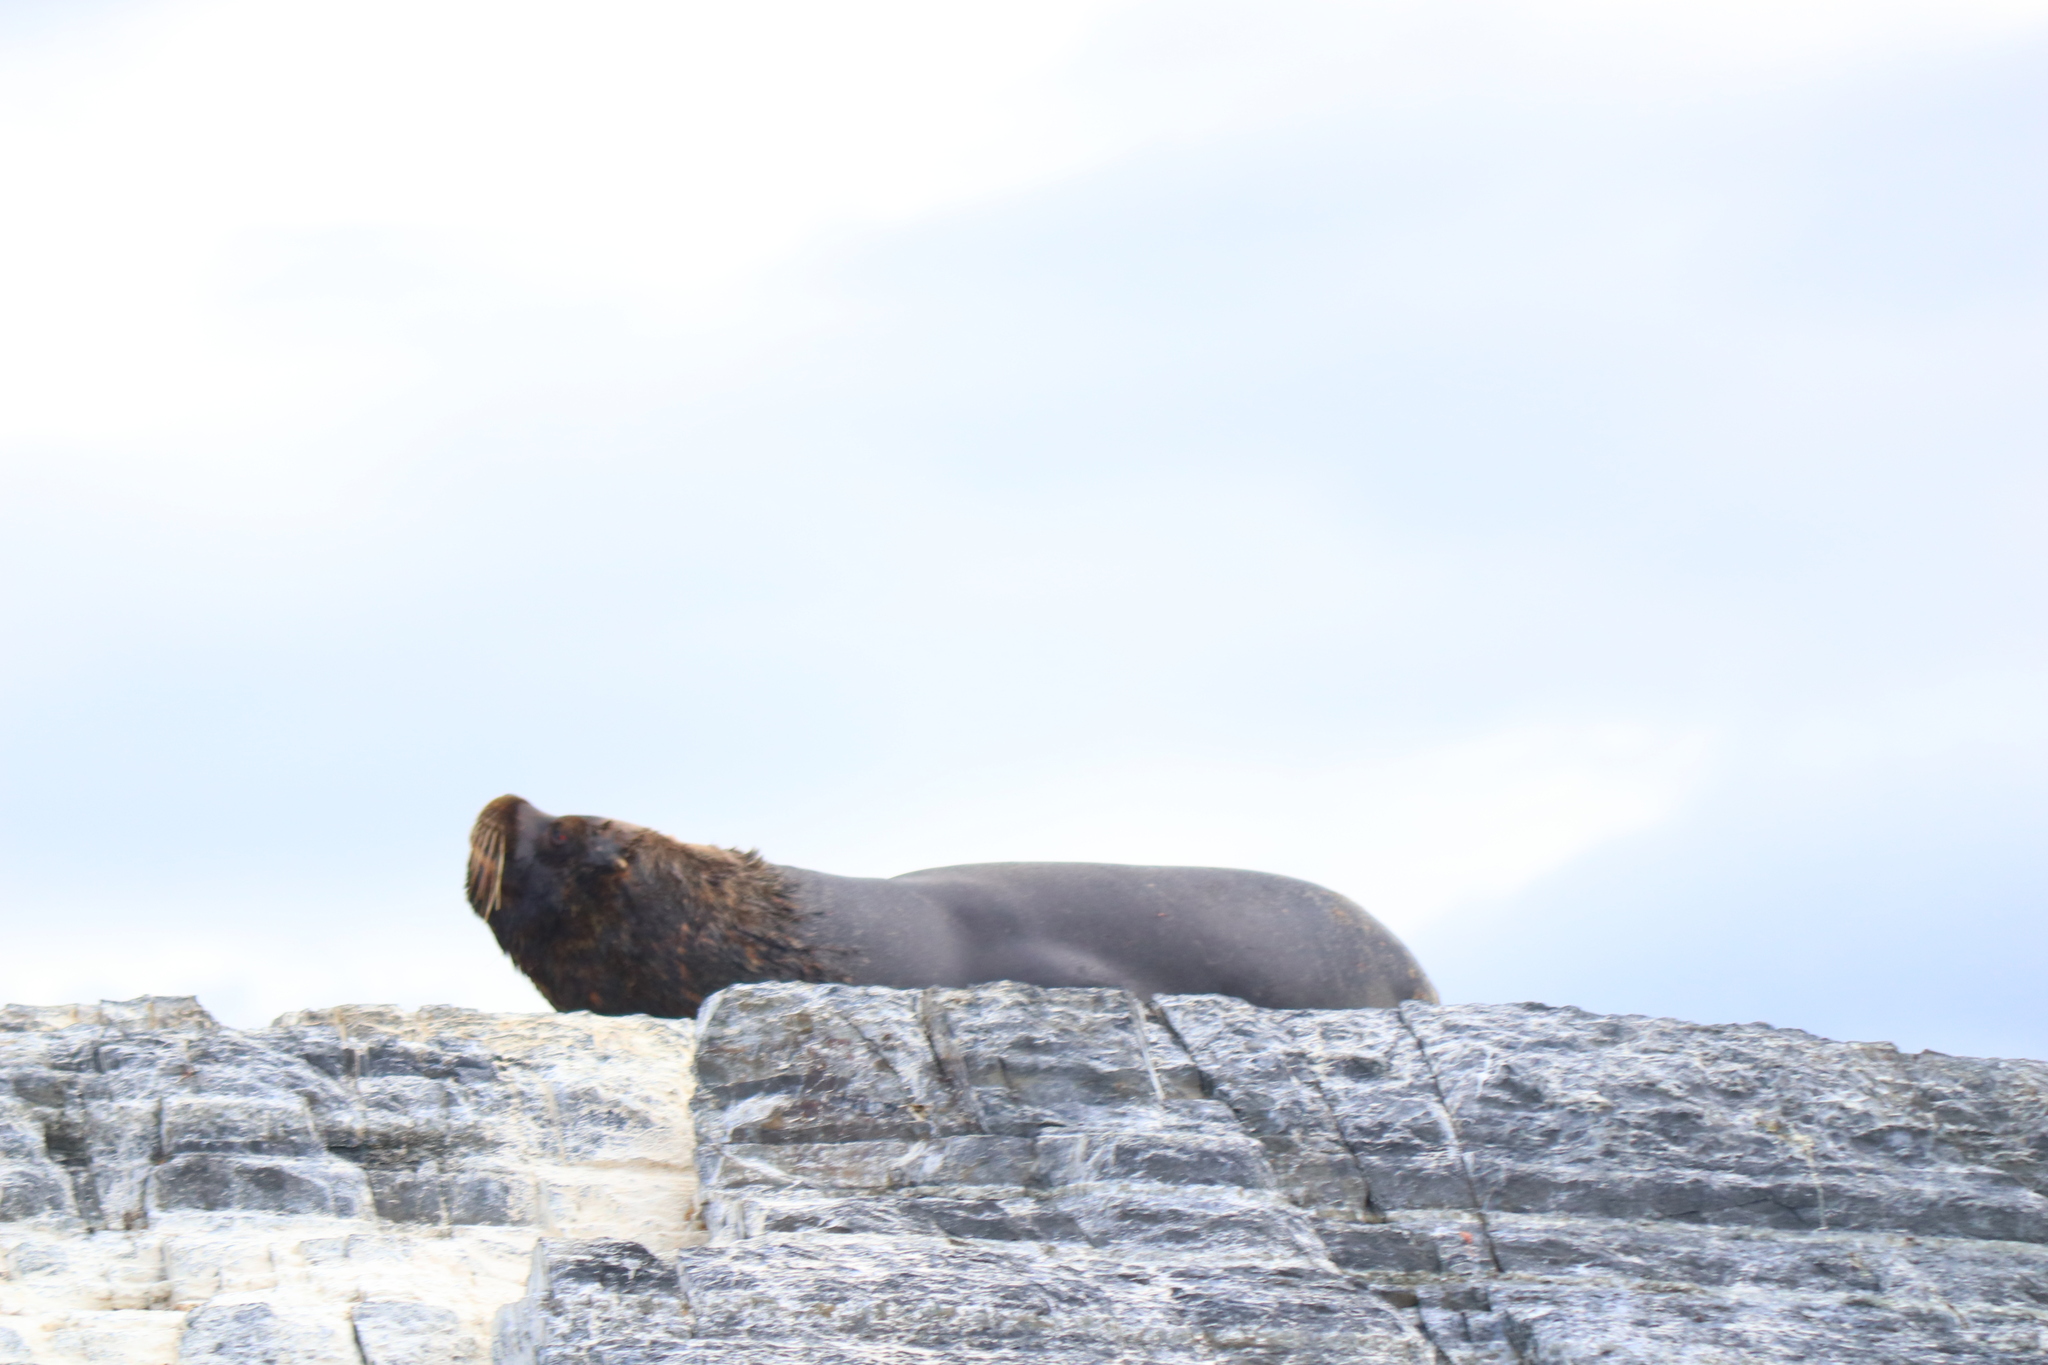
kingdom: Animalia
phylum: Chordata
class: Mammalia
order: Carnivora
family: Otariidae
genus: Otaria
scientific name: Otaria byronia
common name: South american sea lion
